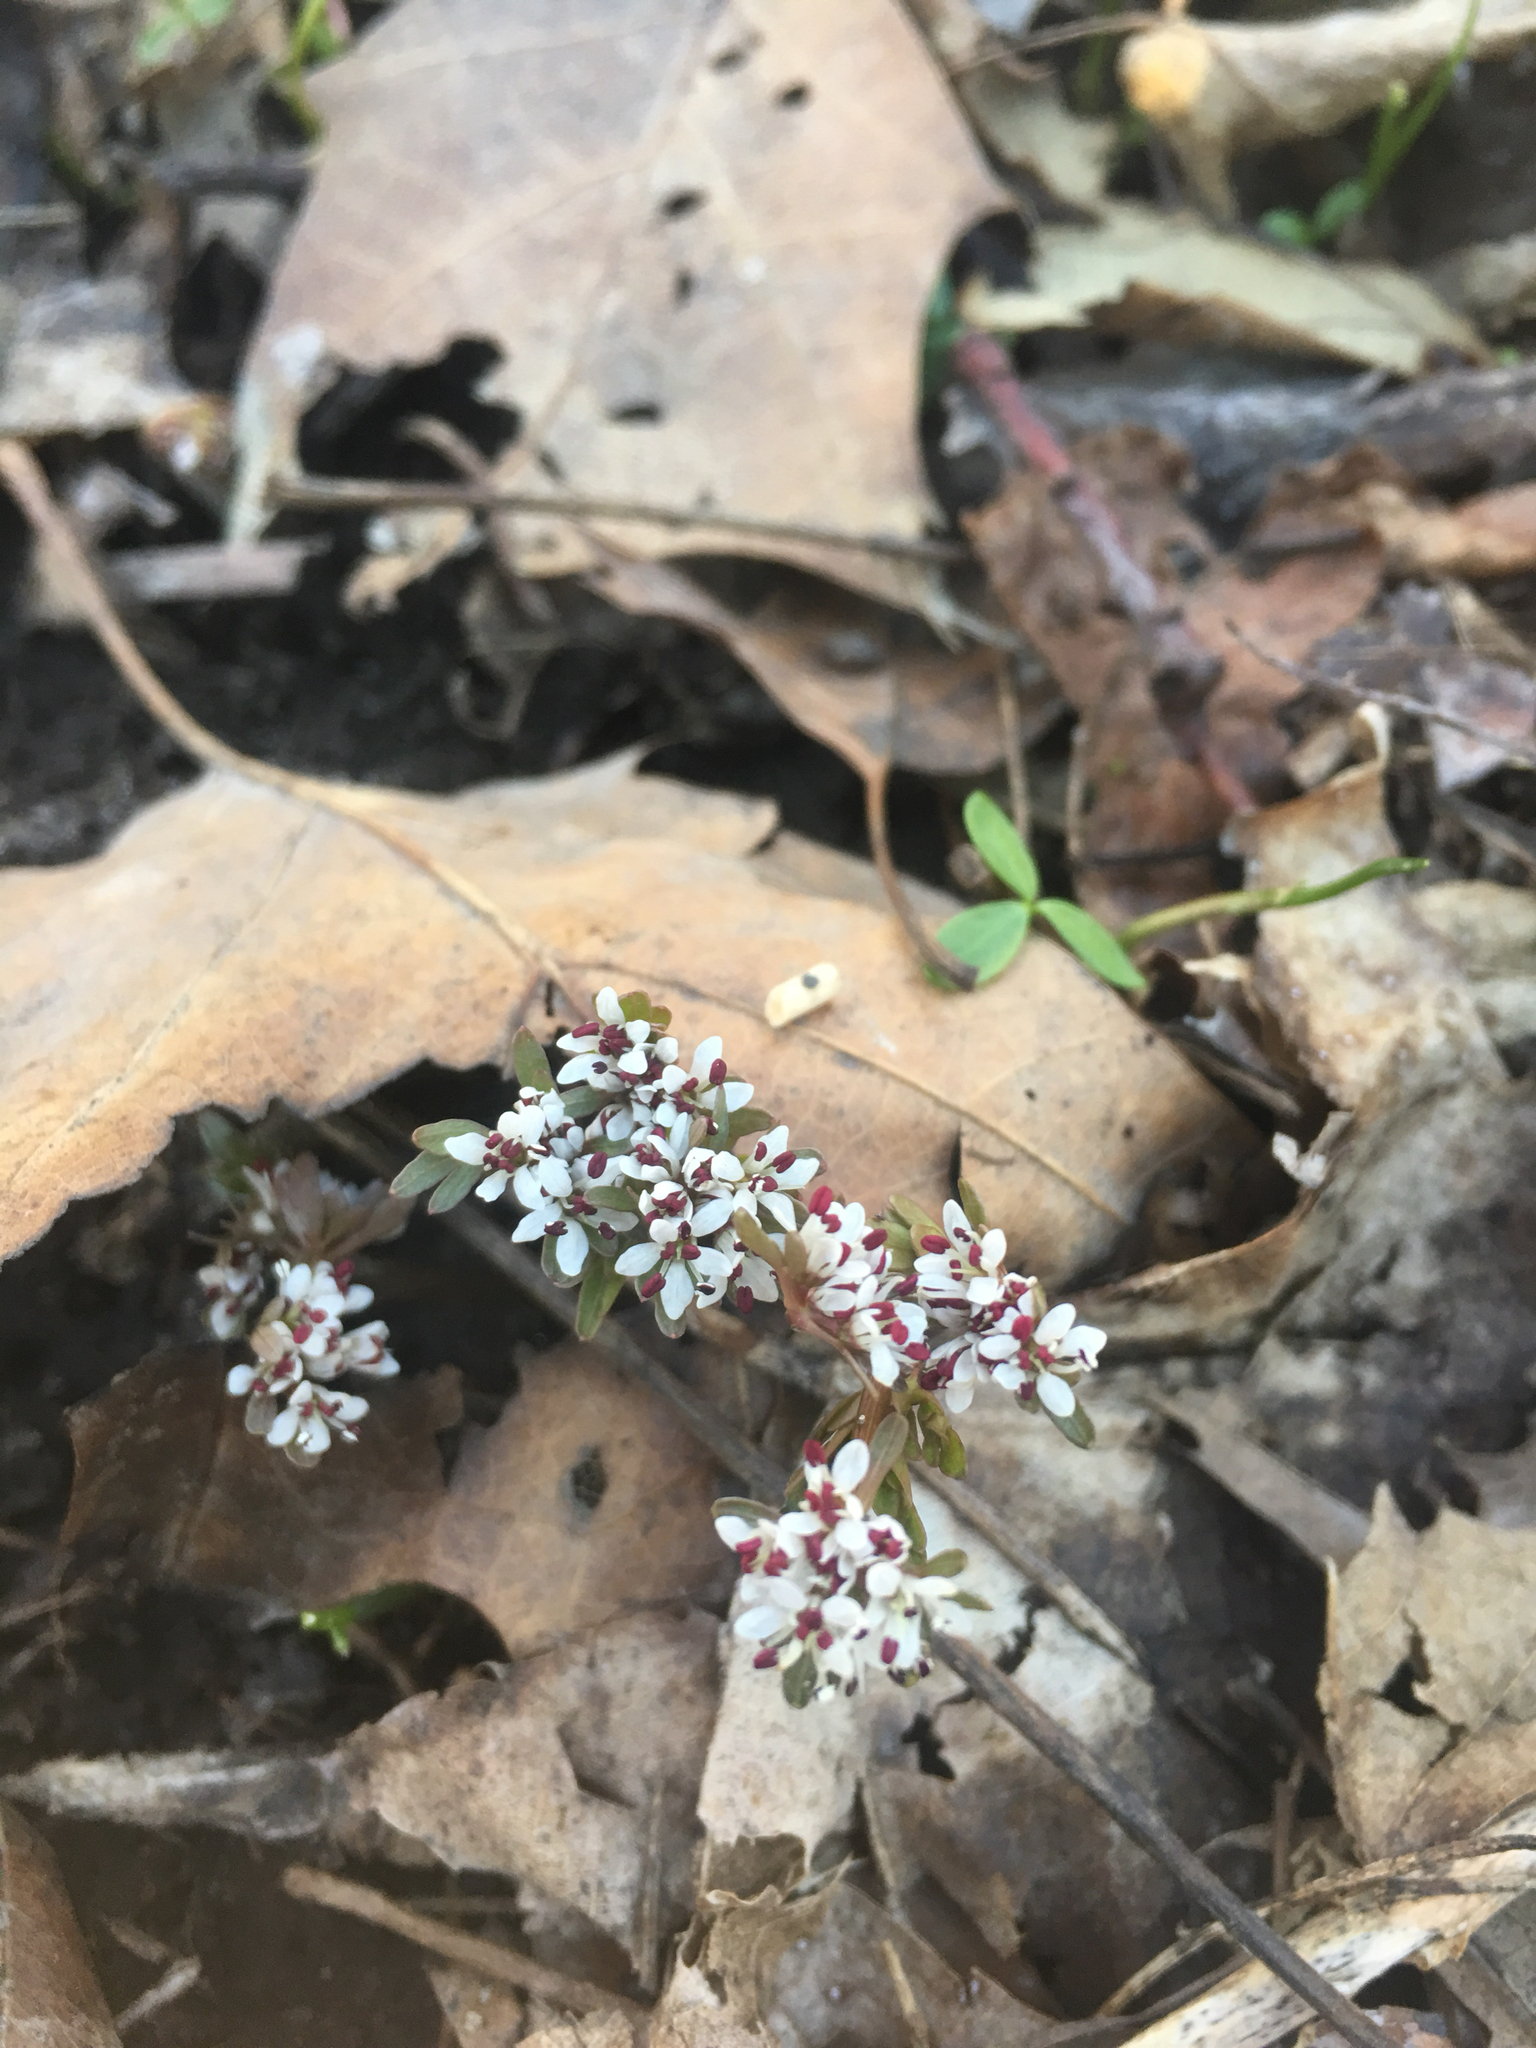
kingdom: Plantae
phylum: Tracheophyta
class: Magnoliopsida
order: Apiales
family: Apiaceae
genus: Erigenia
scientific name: Erigenia bulbosa
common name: Pepper-and-salt
